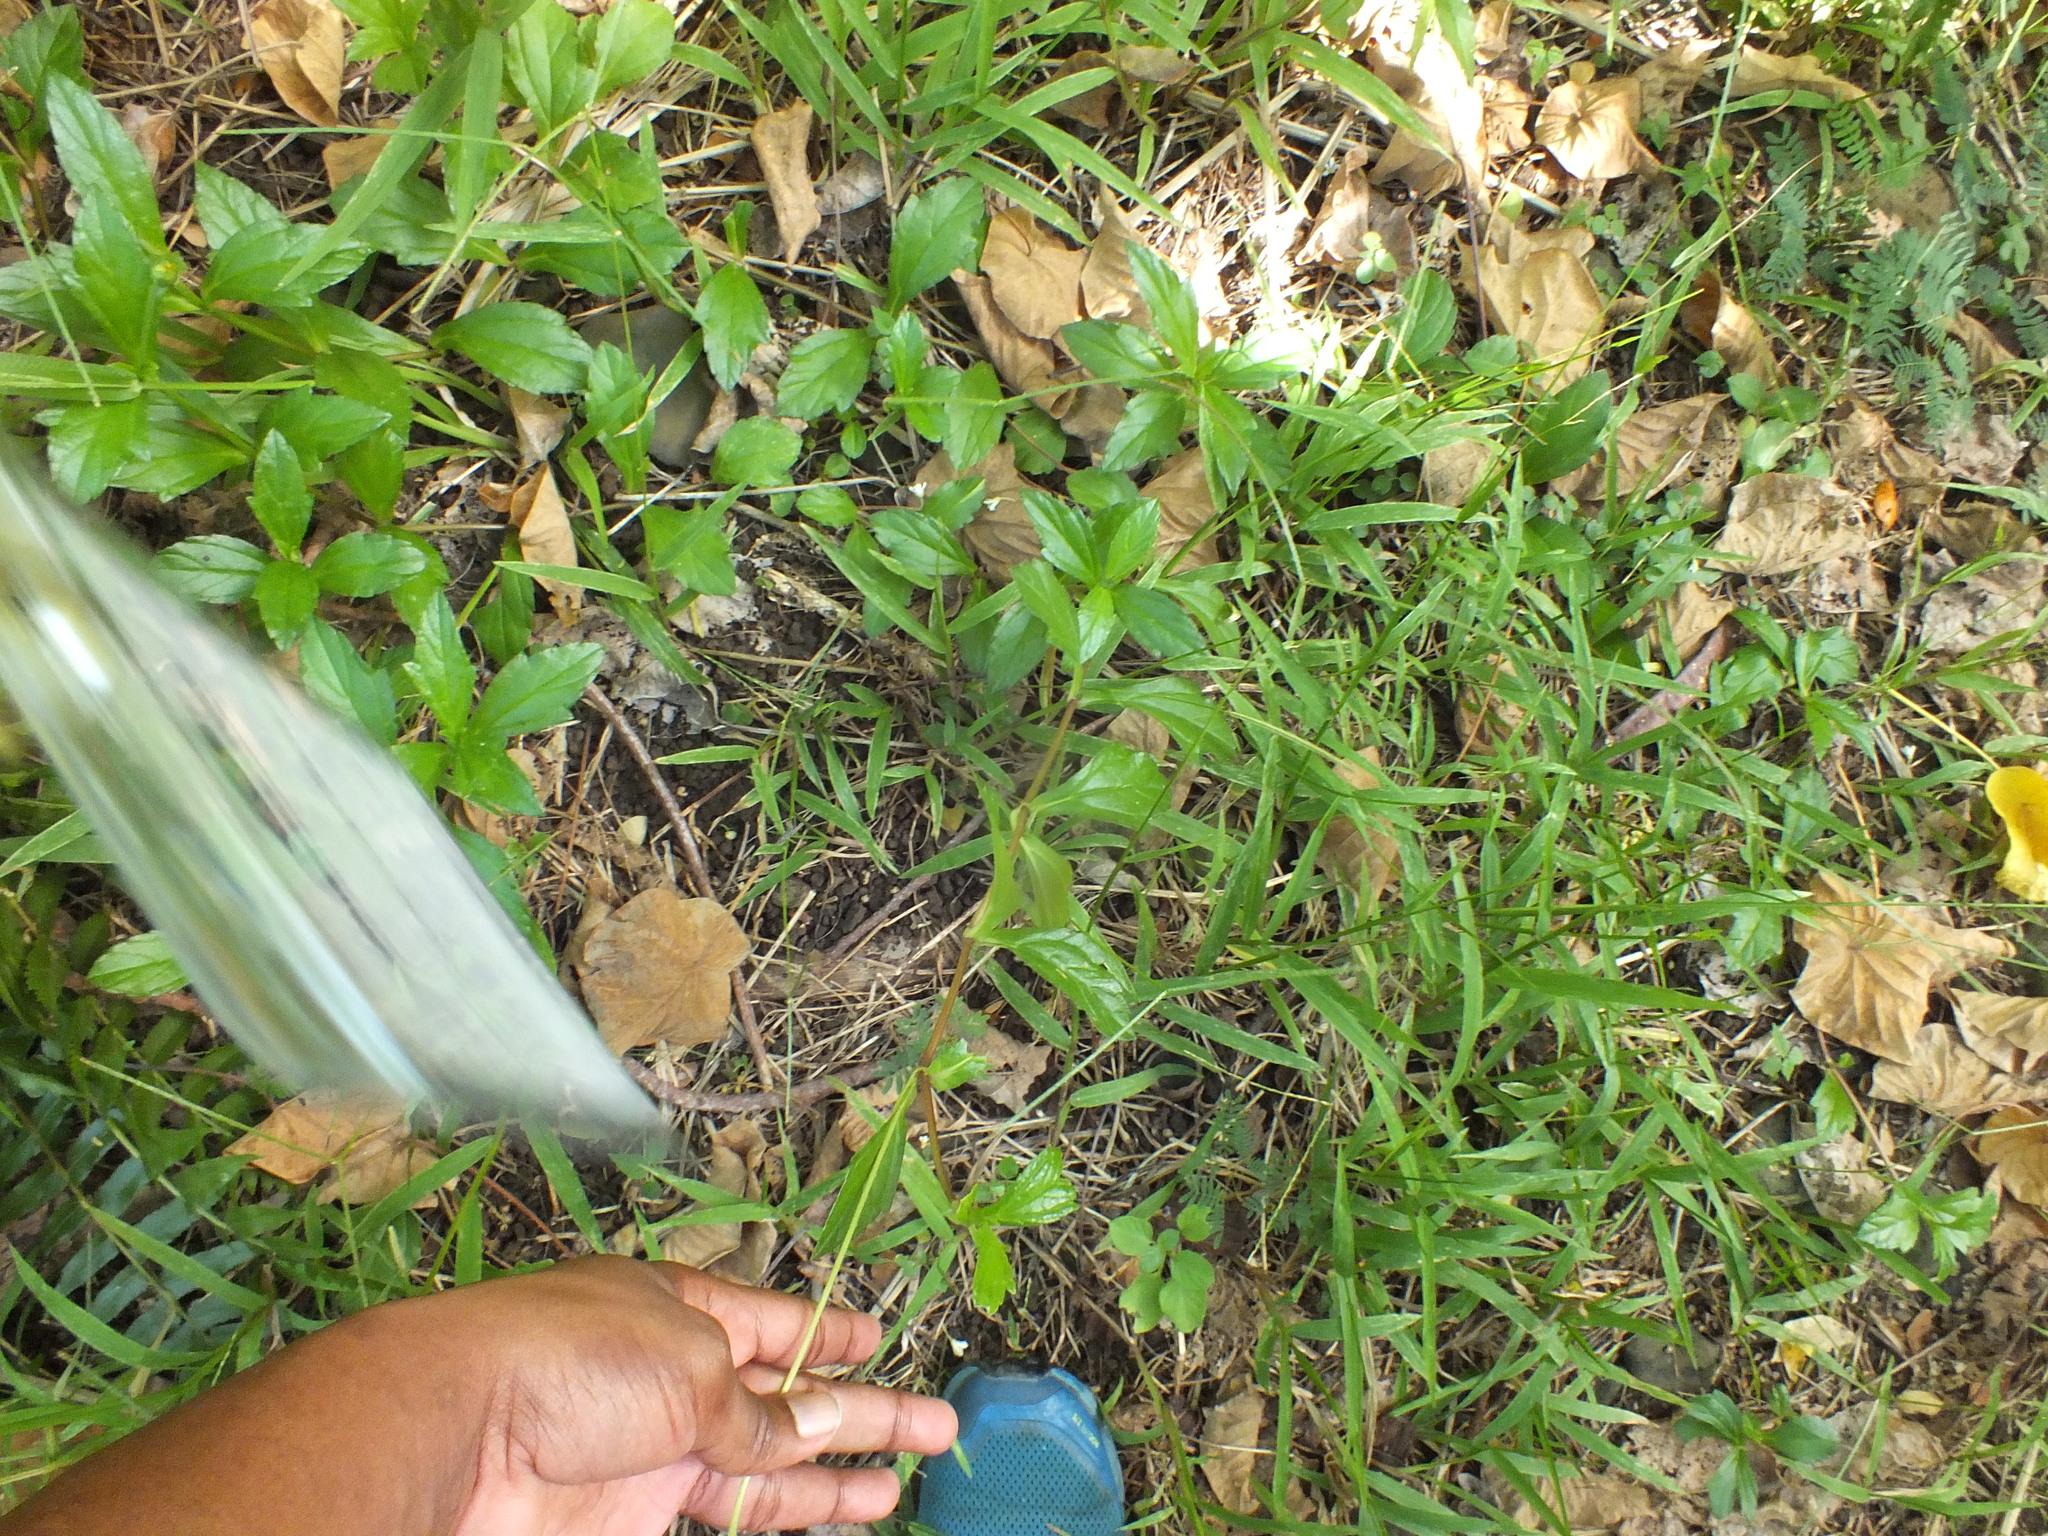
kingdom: Plantae
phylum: Tracheophyta
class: Magnoliopsida
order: Asterales
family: Asteraceae
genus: Sphagneticola
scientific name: Sphagneticola trilobata
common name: Bay biscayne creeping-oxeye
